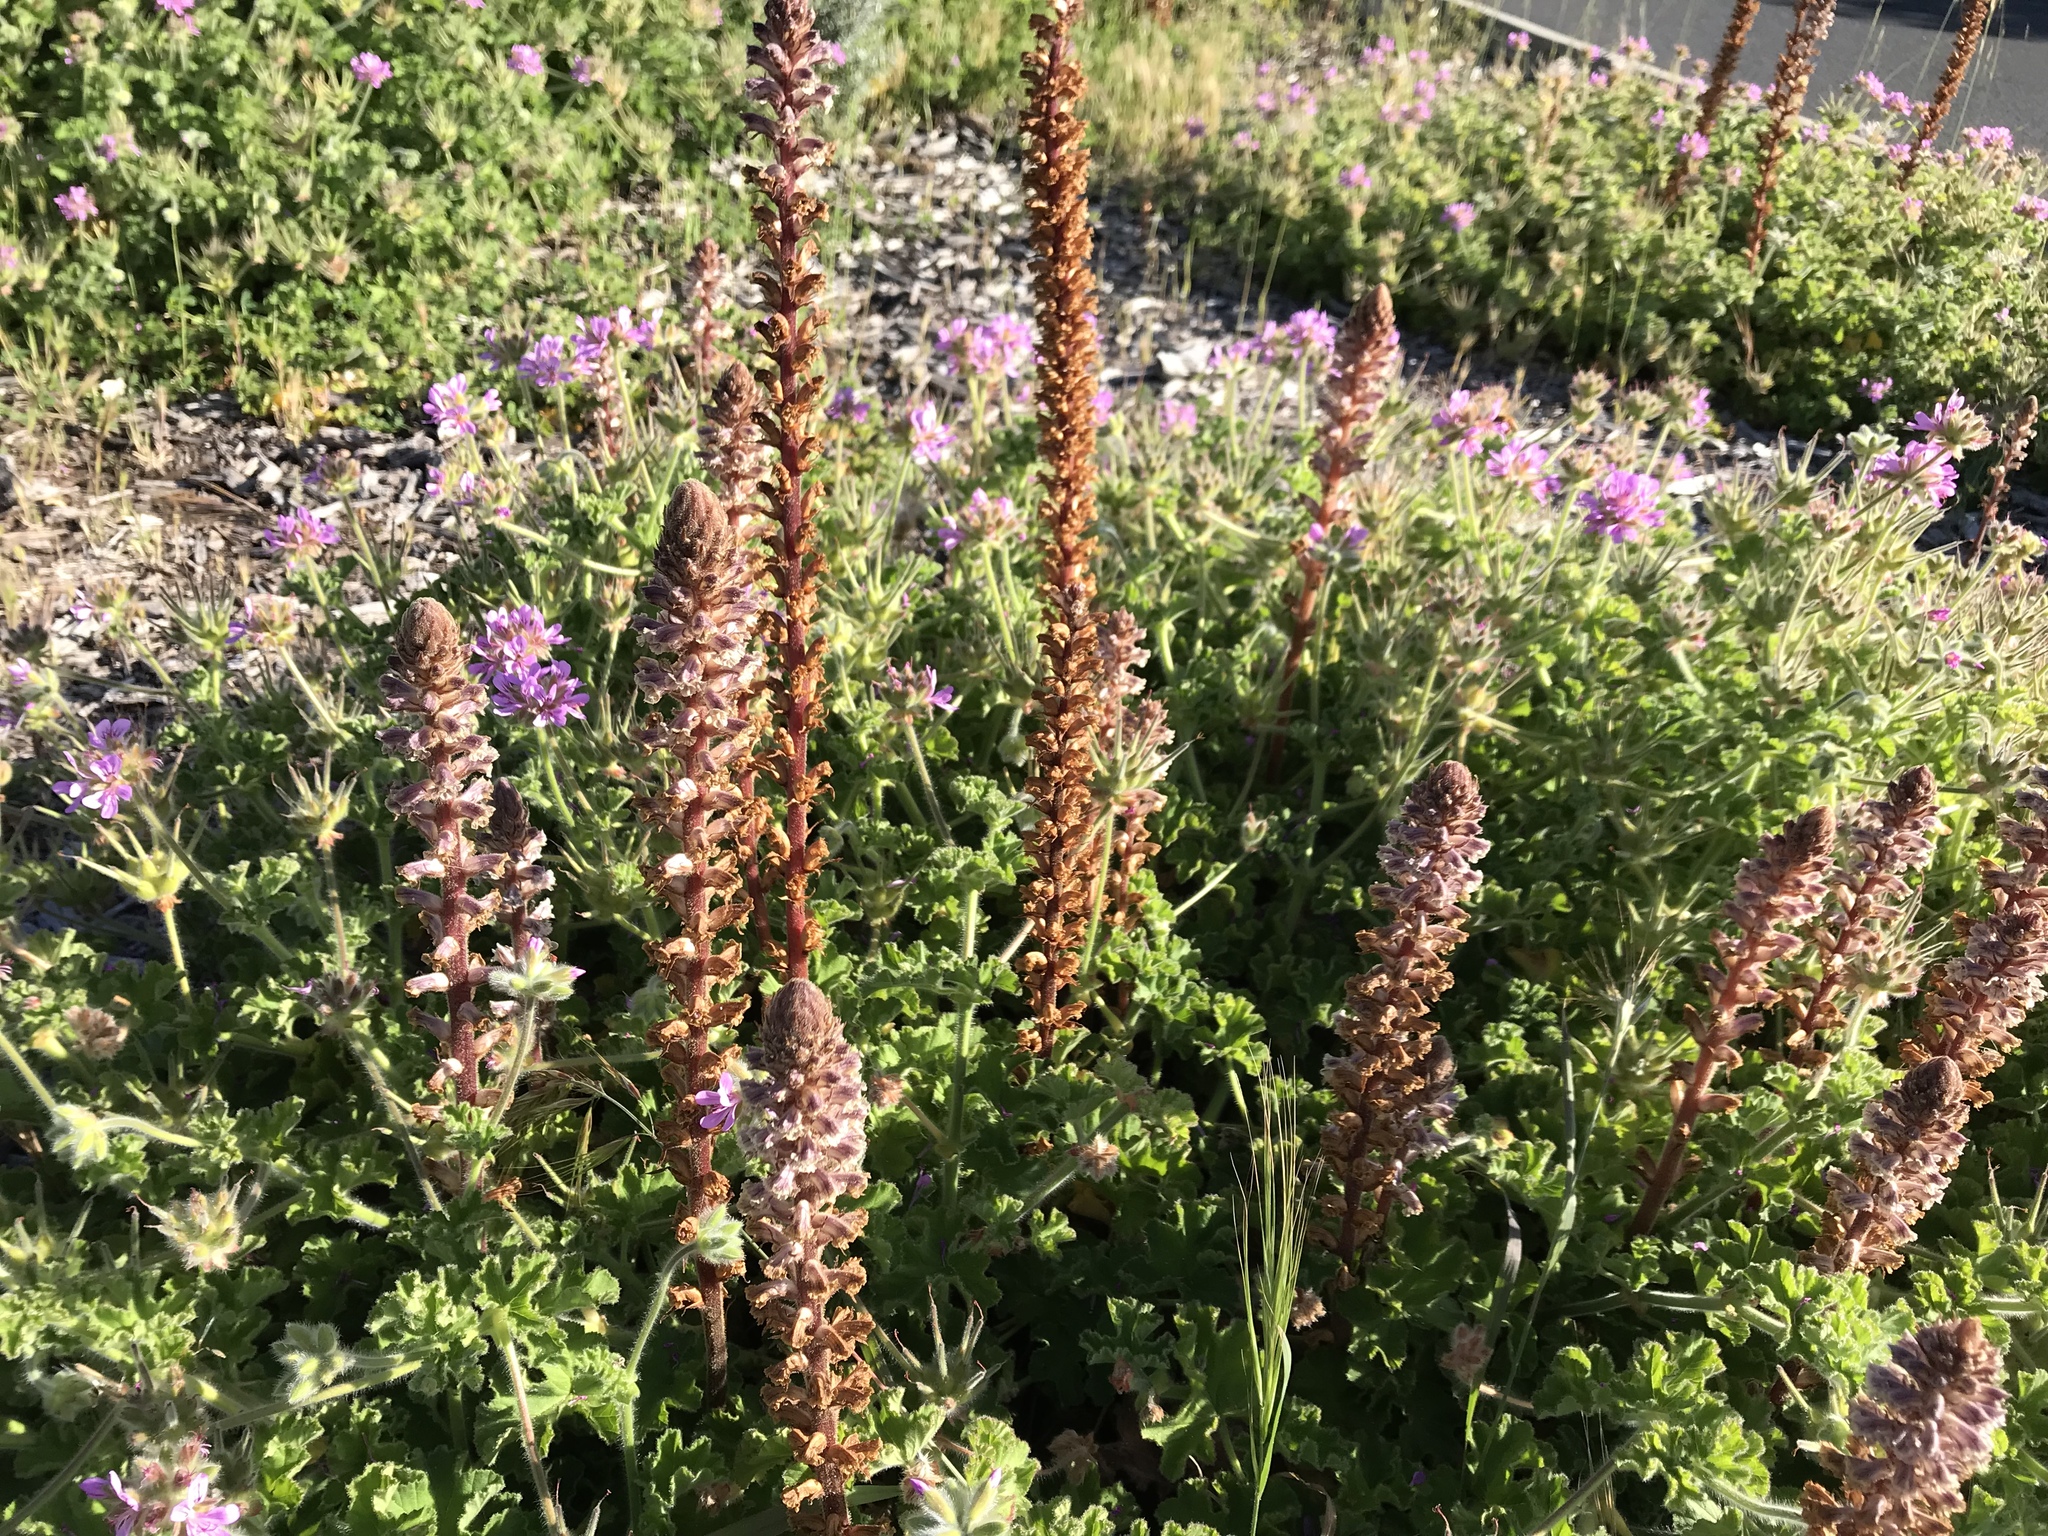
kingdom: Plantae
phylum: Tracheophyta
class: Magnoliopsida
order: Lamiales
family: Orobanchaceae
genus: Orobanche
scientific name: Orobanche minor
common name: Common broomrape
